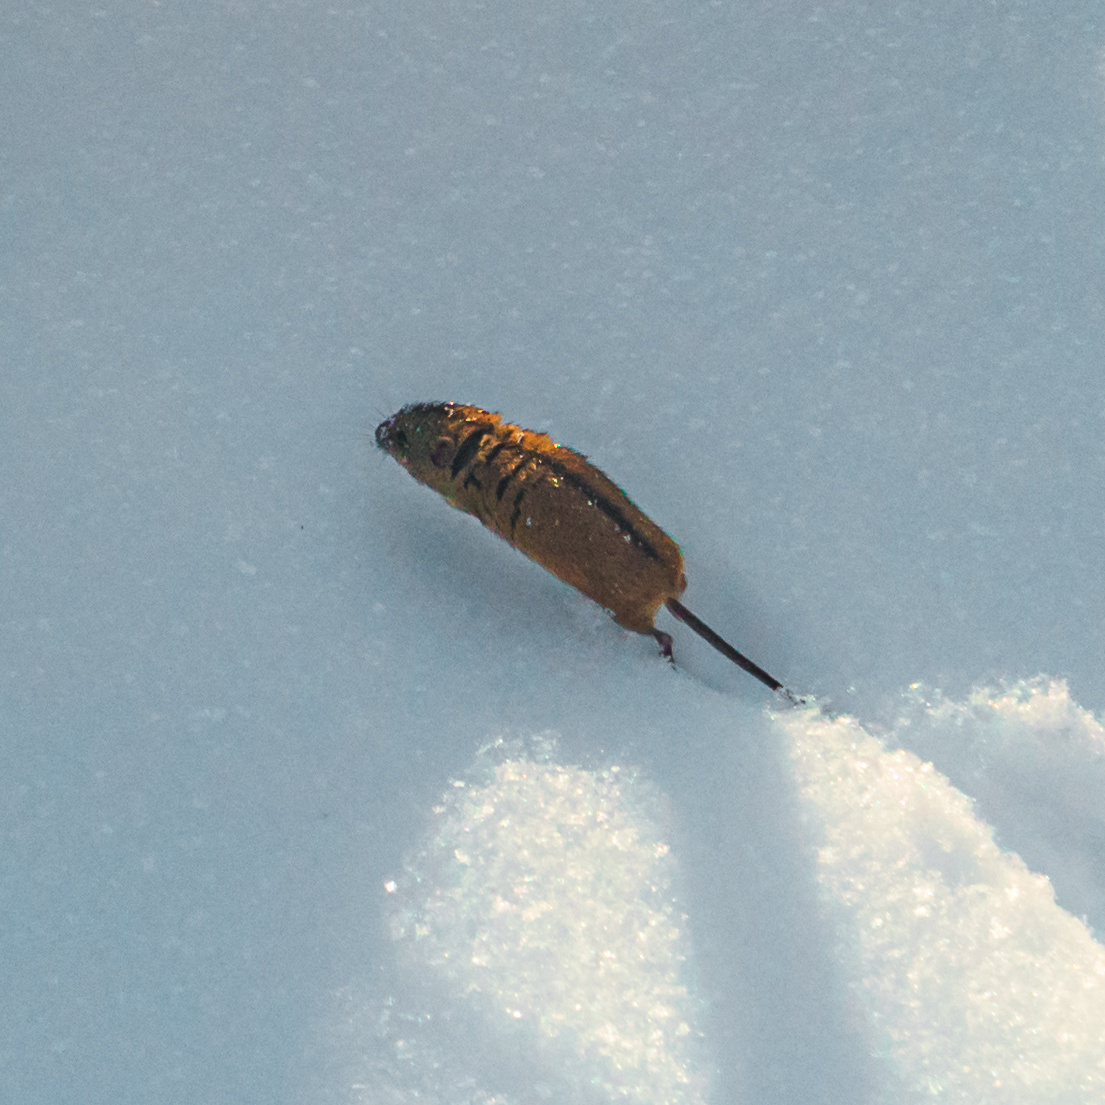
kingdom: Animalia
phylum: Chordata
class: Mammalia
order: Rodentia
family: Muridae
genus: Apodemus
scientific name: Apodemus agrarius
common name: Striped field mouse
